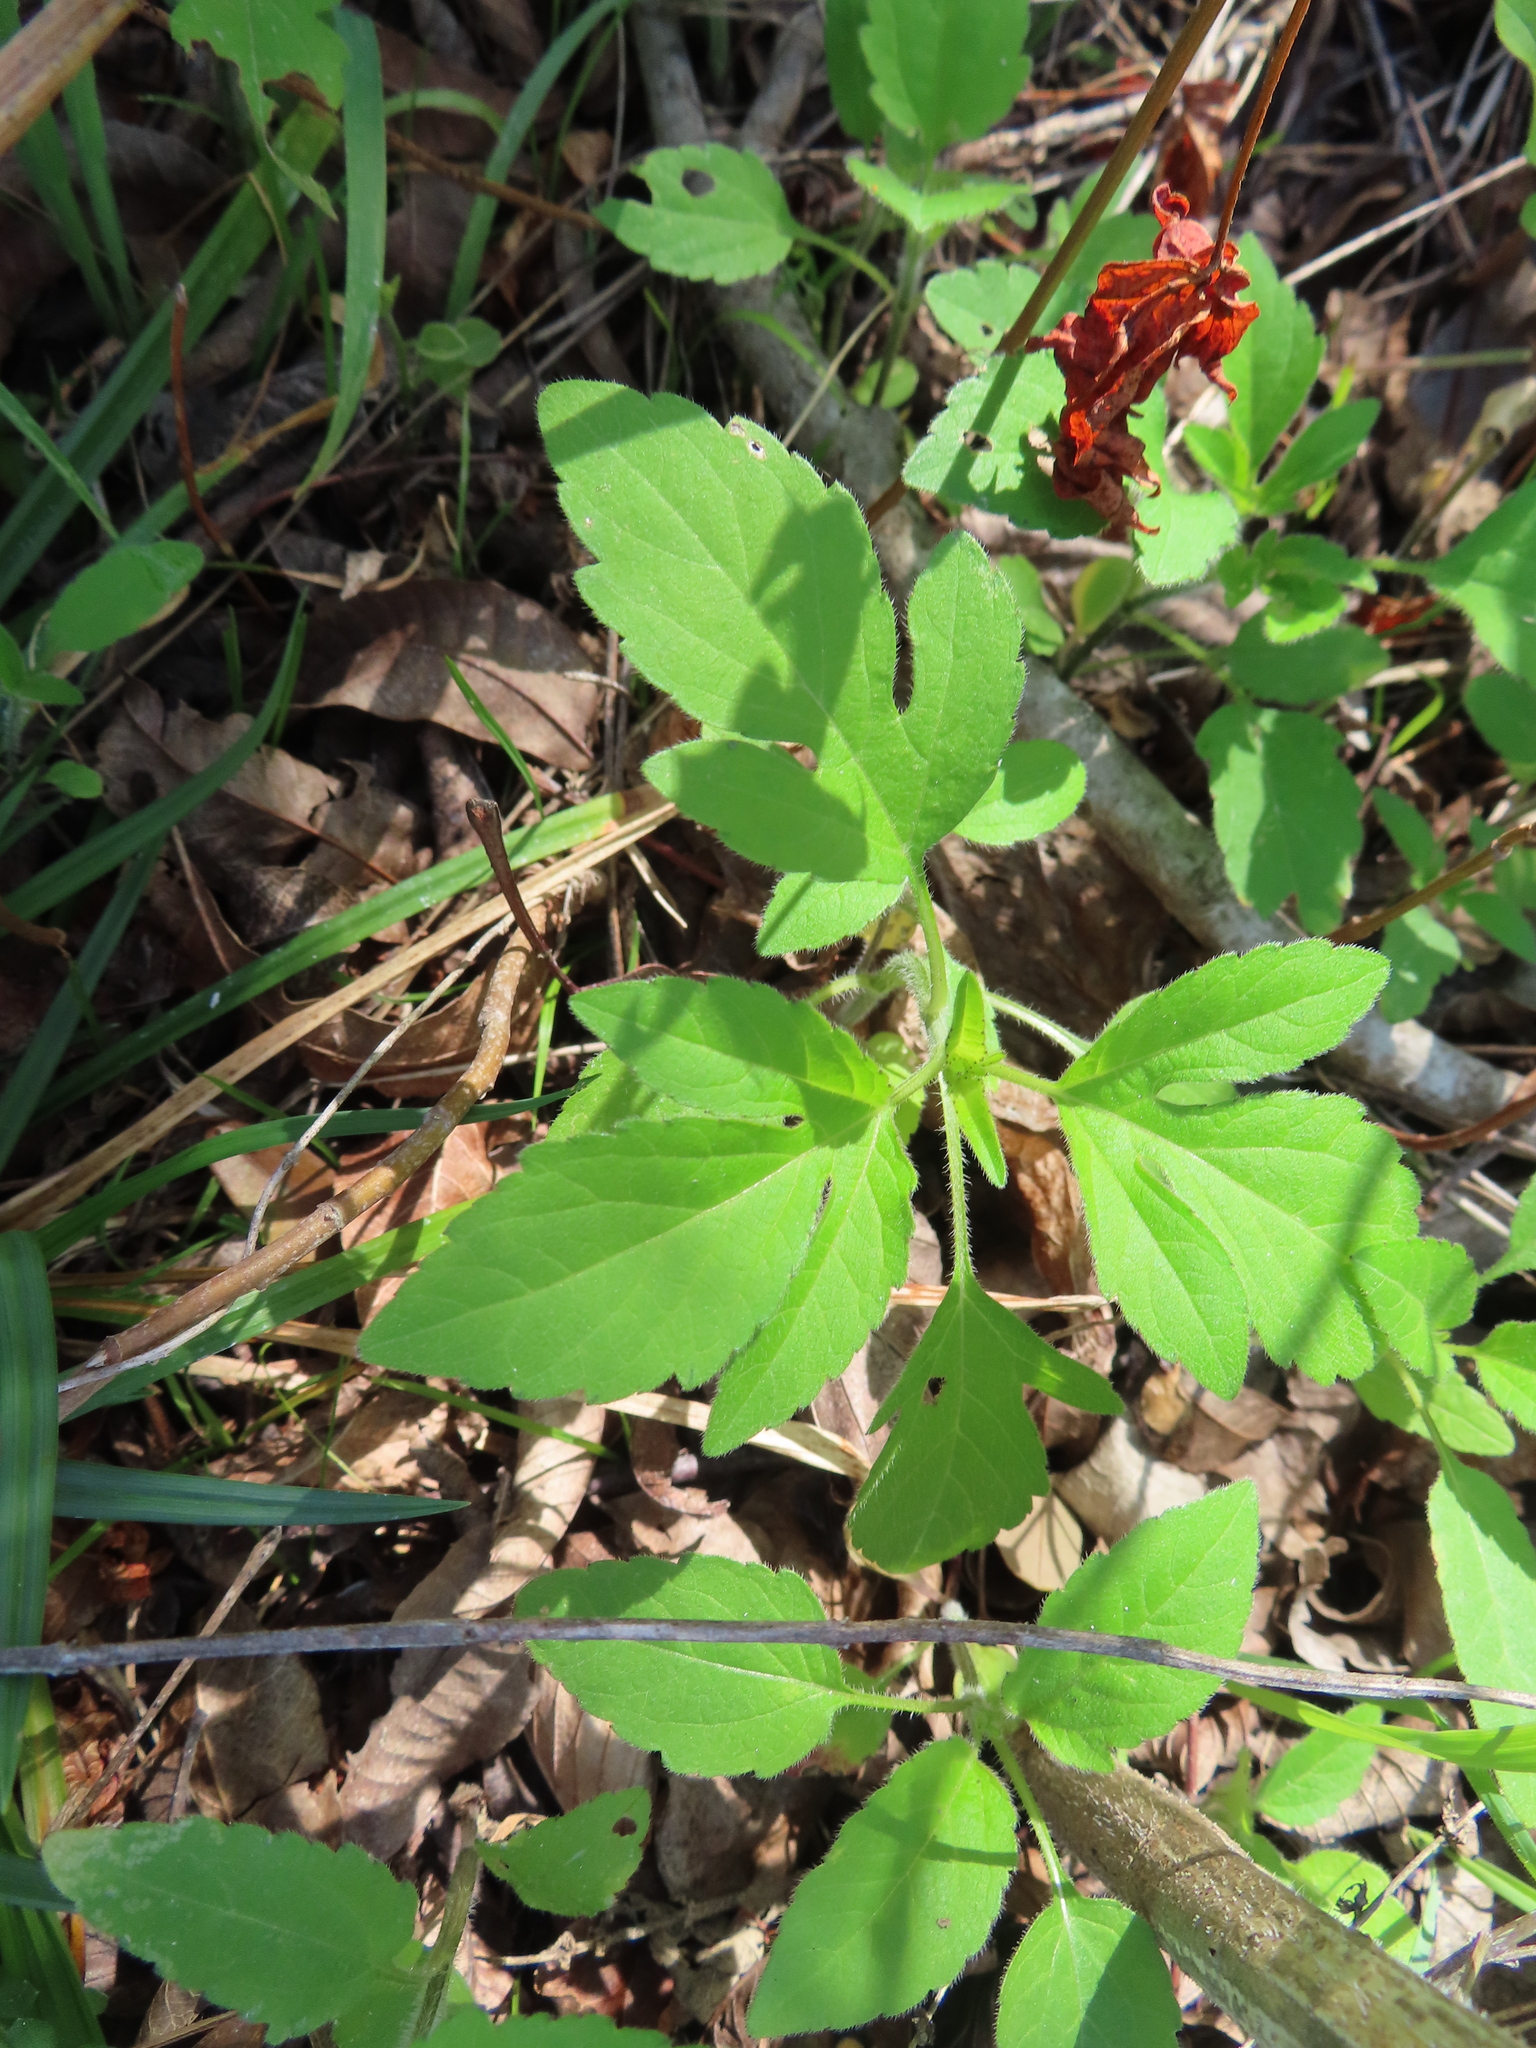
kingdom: Plantae
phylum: Tracheophyta
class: Magnoliopsida
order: Asterales
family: Asteraceae
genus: Ambrosia
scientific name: Ambrosia trifida
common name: Giant ragweed
